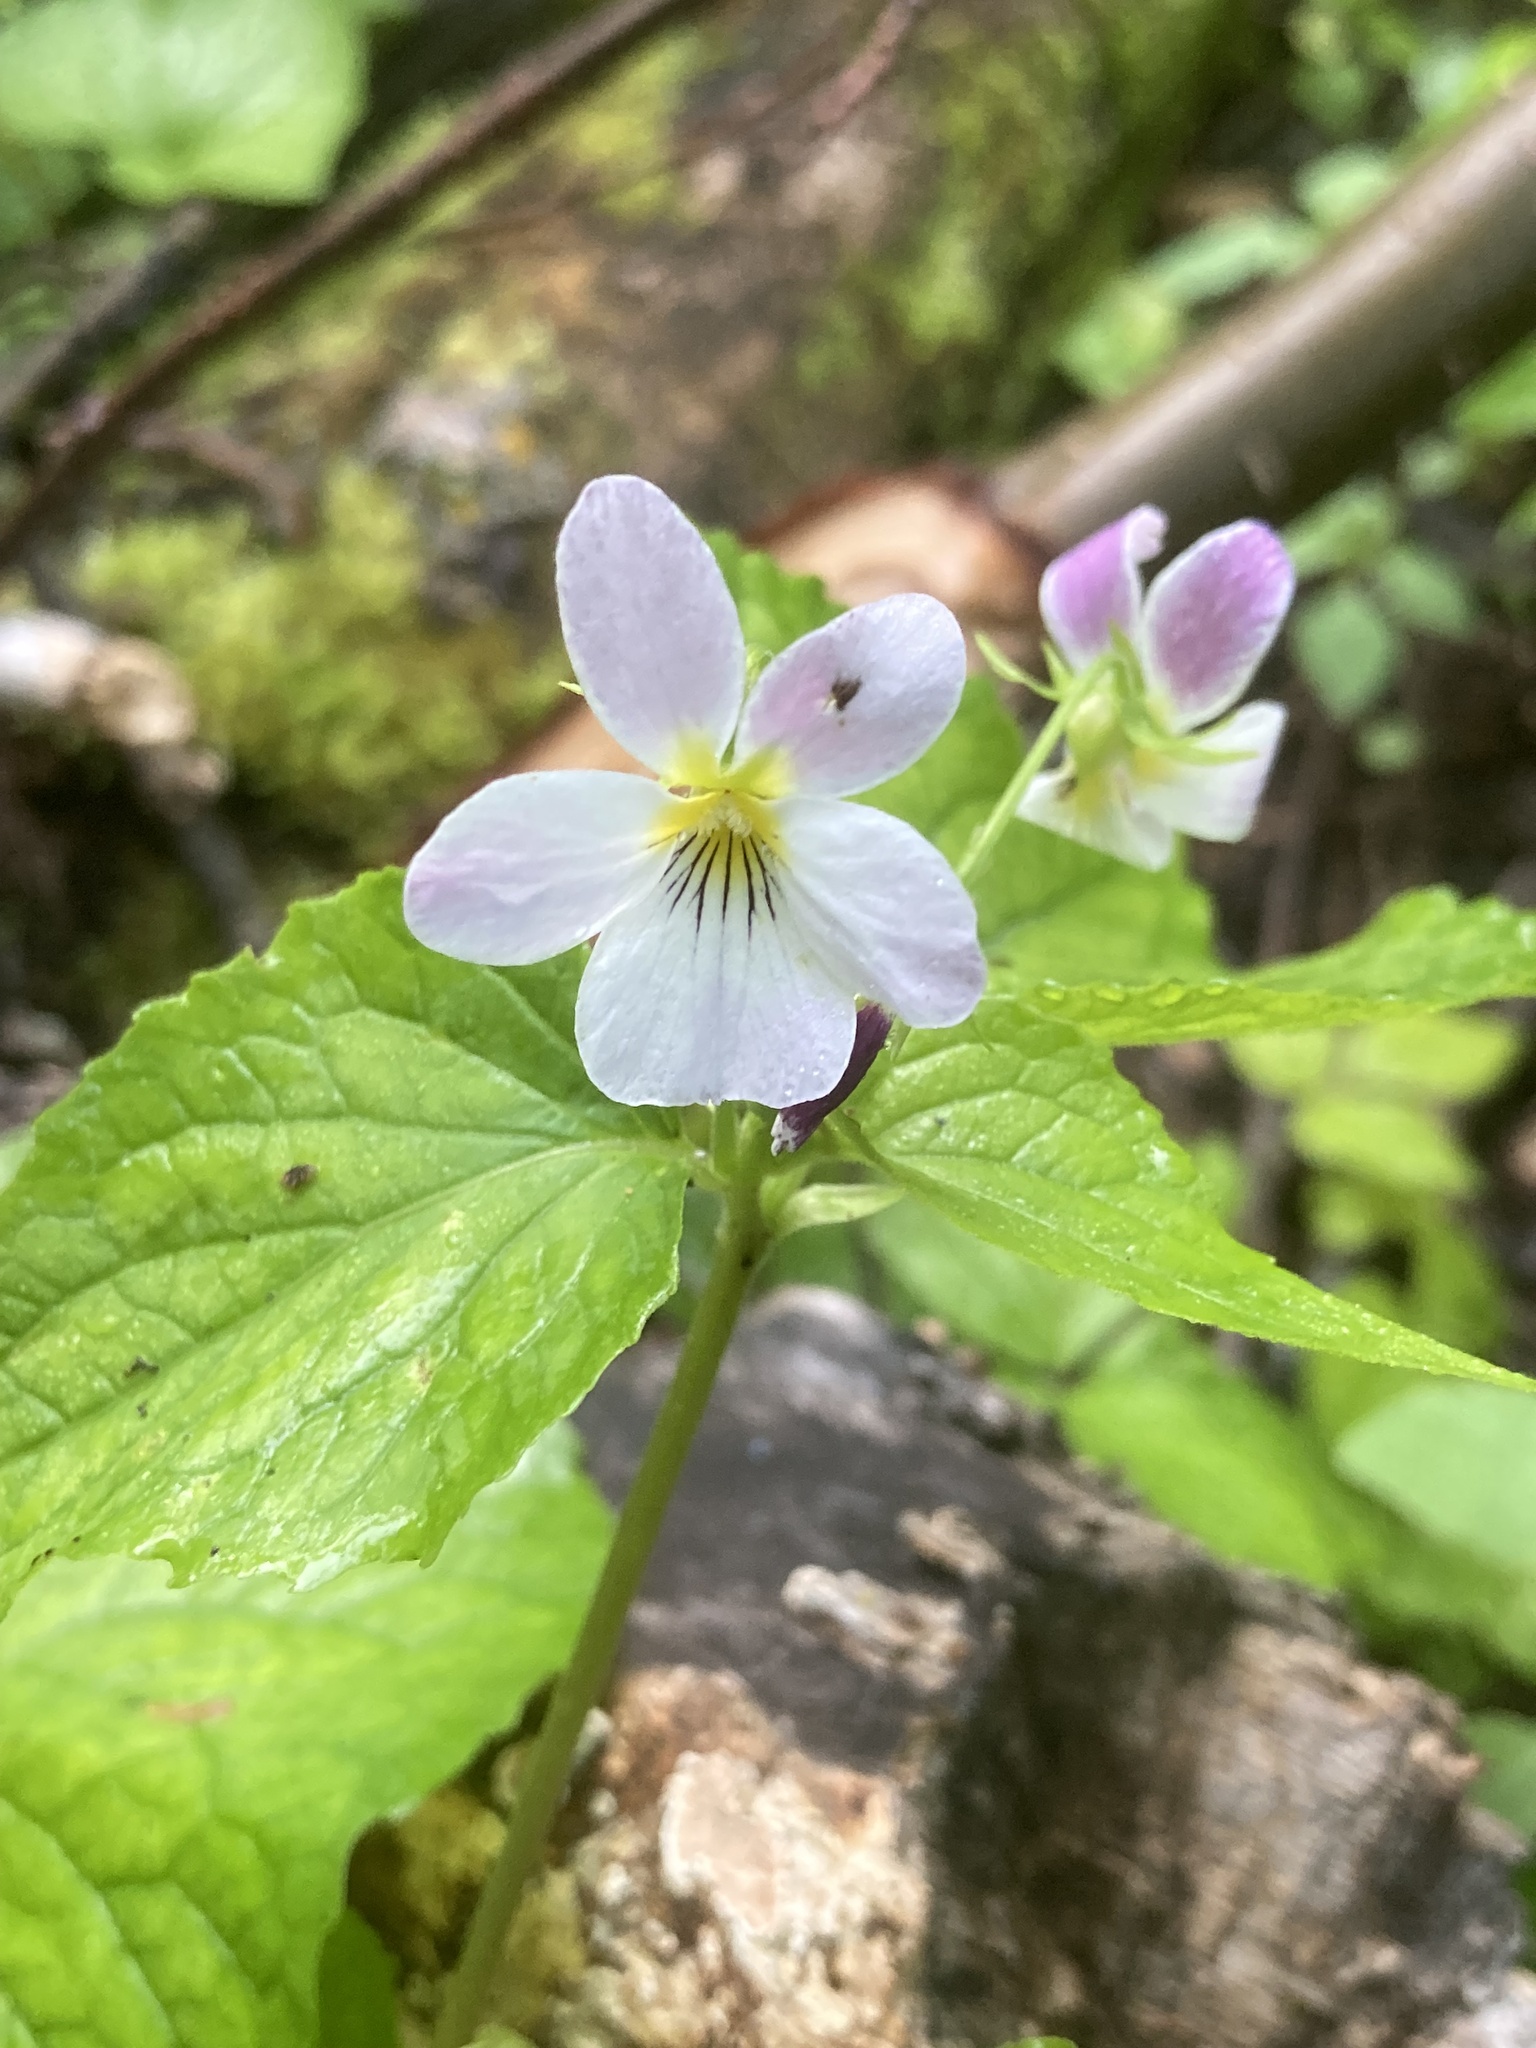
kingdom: Plantae
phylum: Tracheophyta
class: Magnoliopsida
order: Malpighiales
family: Violaceae
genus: Viola
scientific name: Viola canadensis
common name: Canada violet
